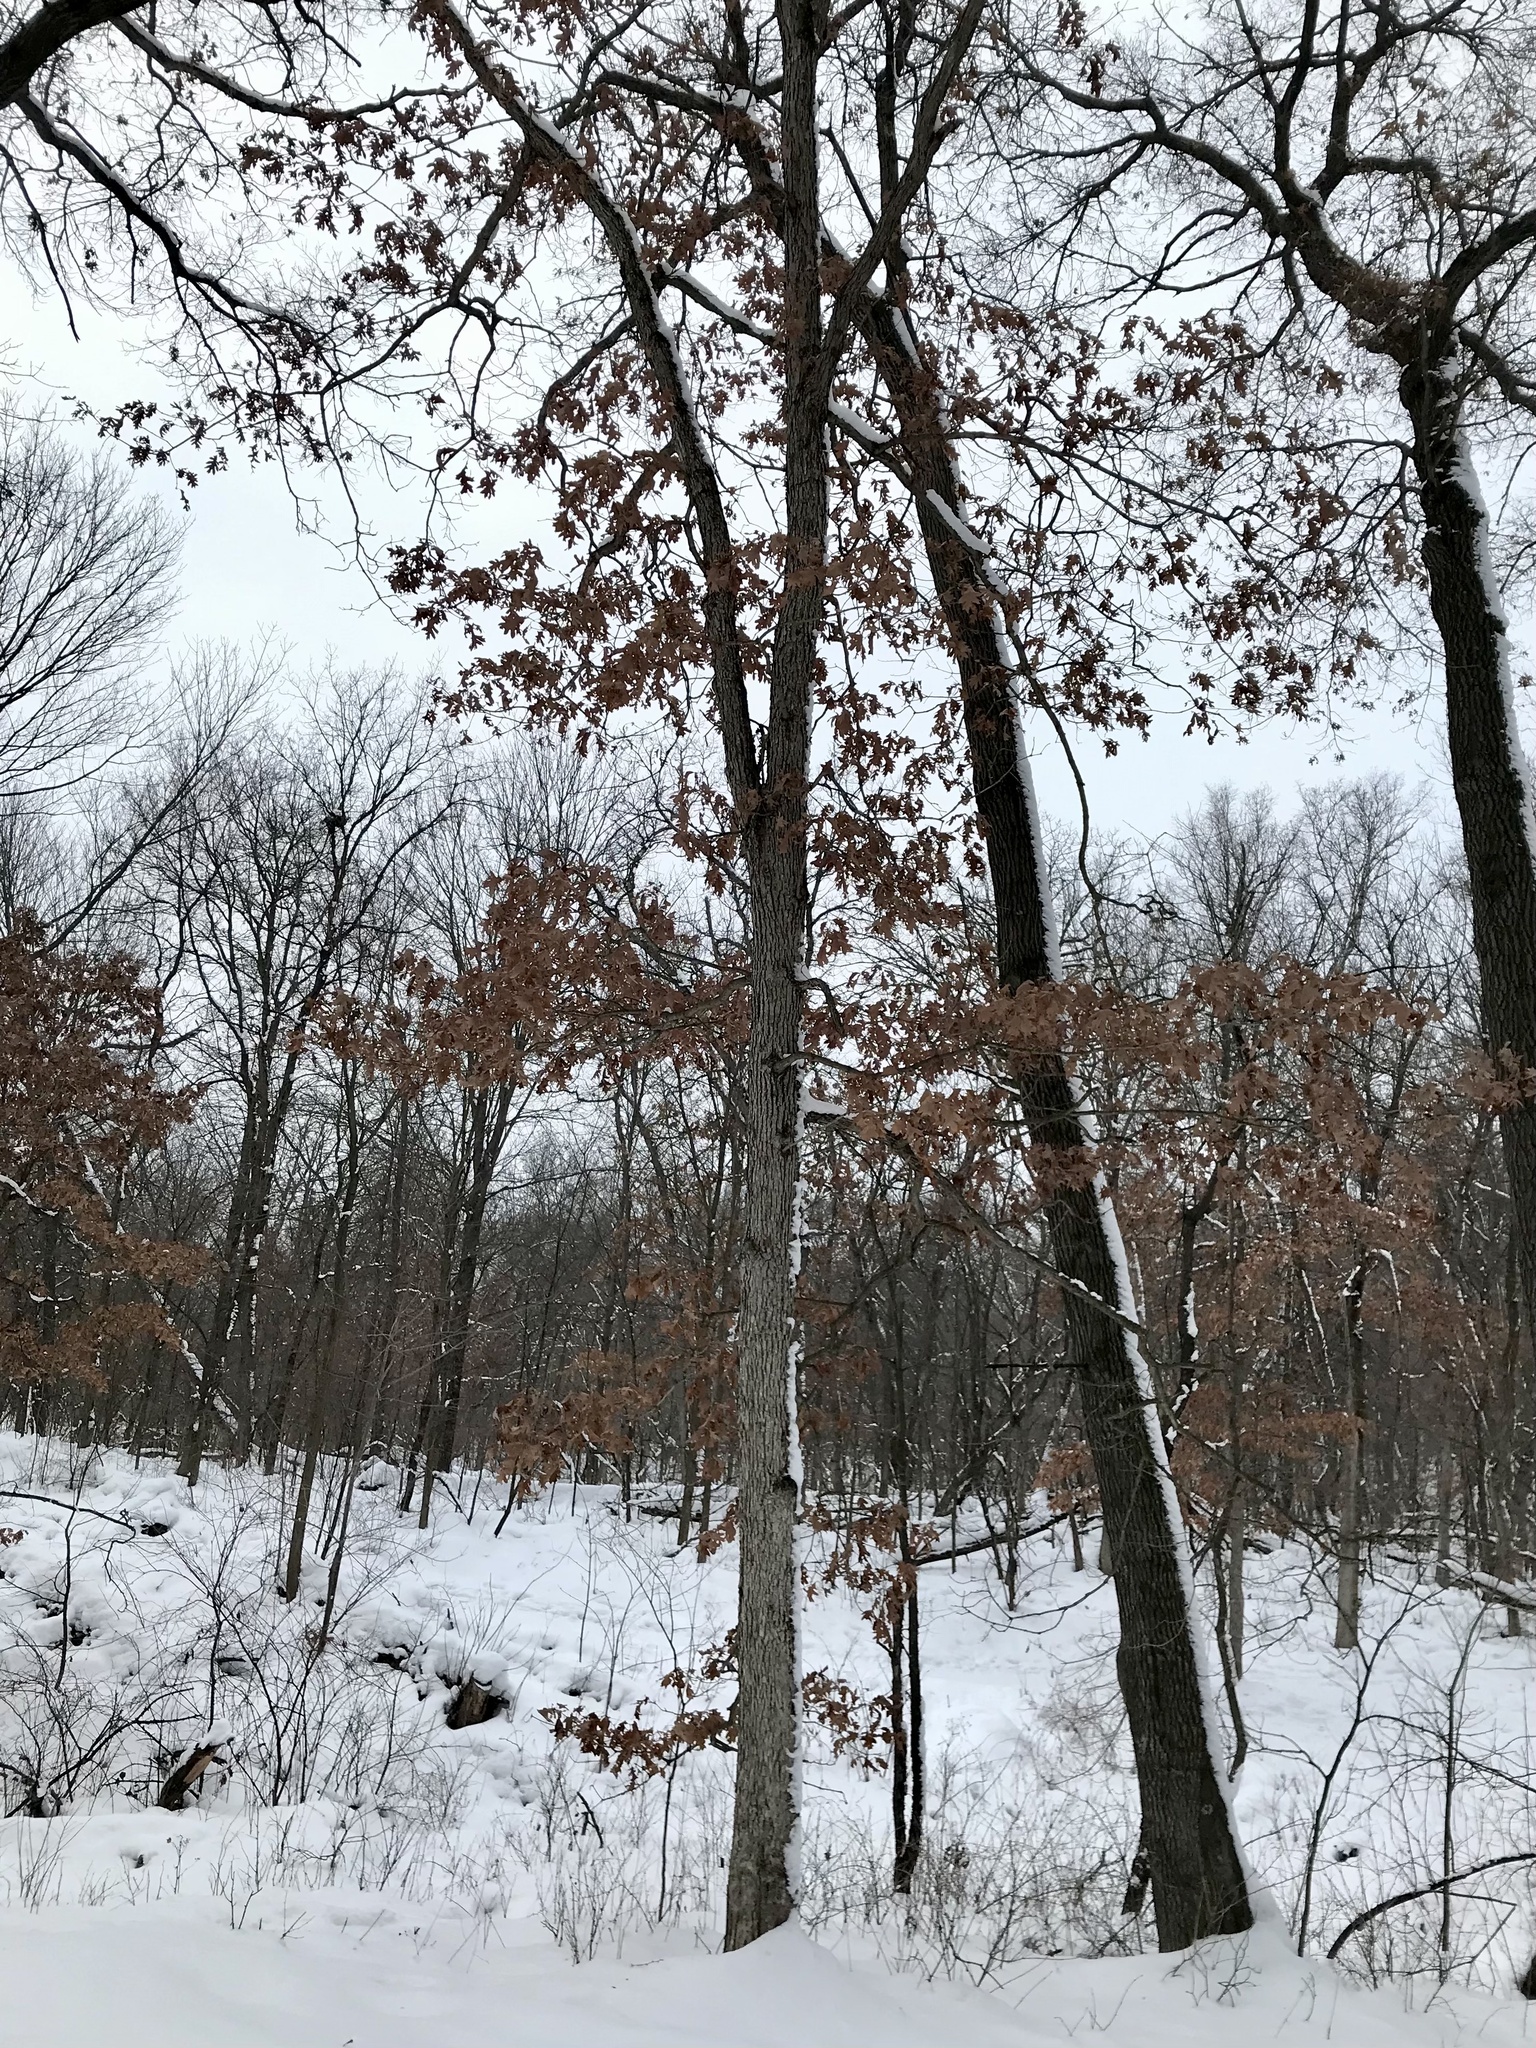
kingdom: Plantae
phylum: Tracheophyta
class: Magnoliopsida
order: Fagales
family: Fagaceae
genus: Quercus
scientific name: Quercus alba
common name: White oak
